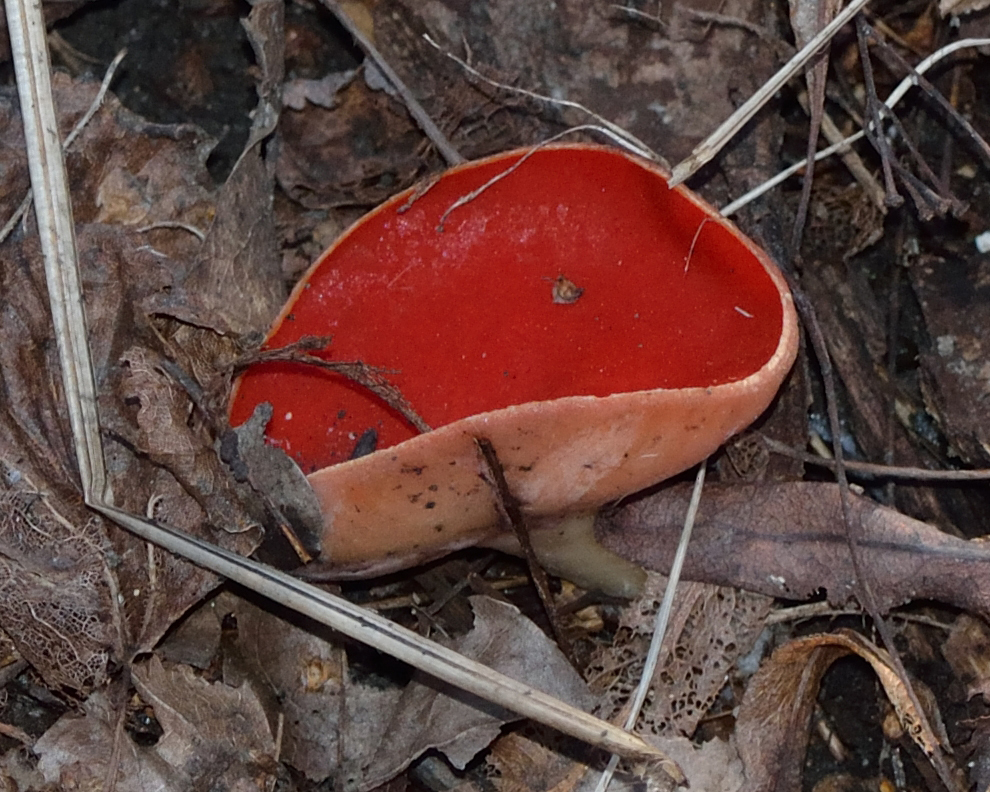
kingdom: Fungi
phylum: Ascomycota
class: Pezizomycetes
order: Pezizales
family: Sarcoscyphaceae
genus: Sarcoscypha
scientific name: Sarcoscypha austriaca
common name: Scarlet elfcup
